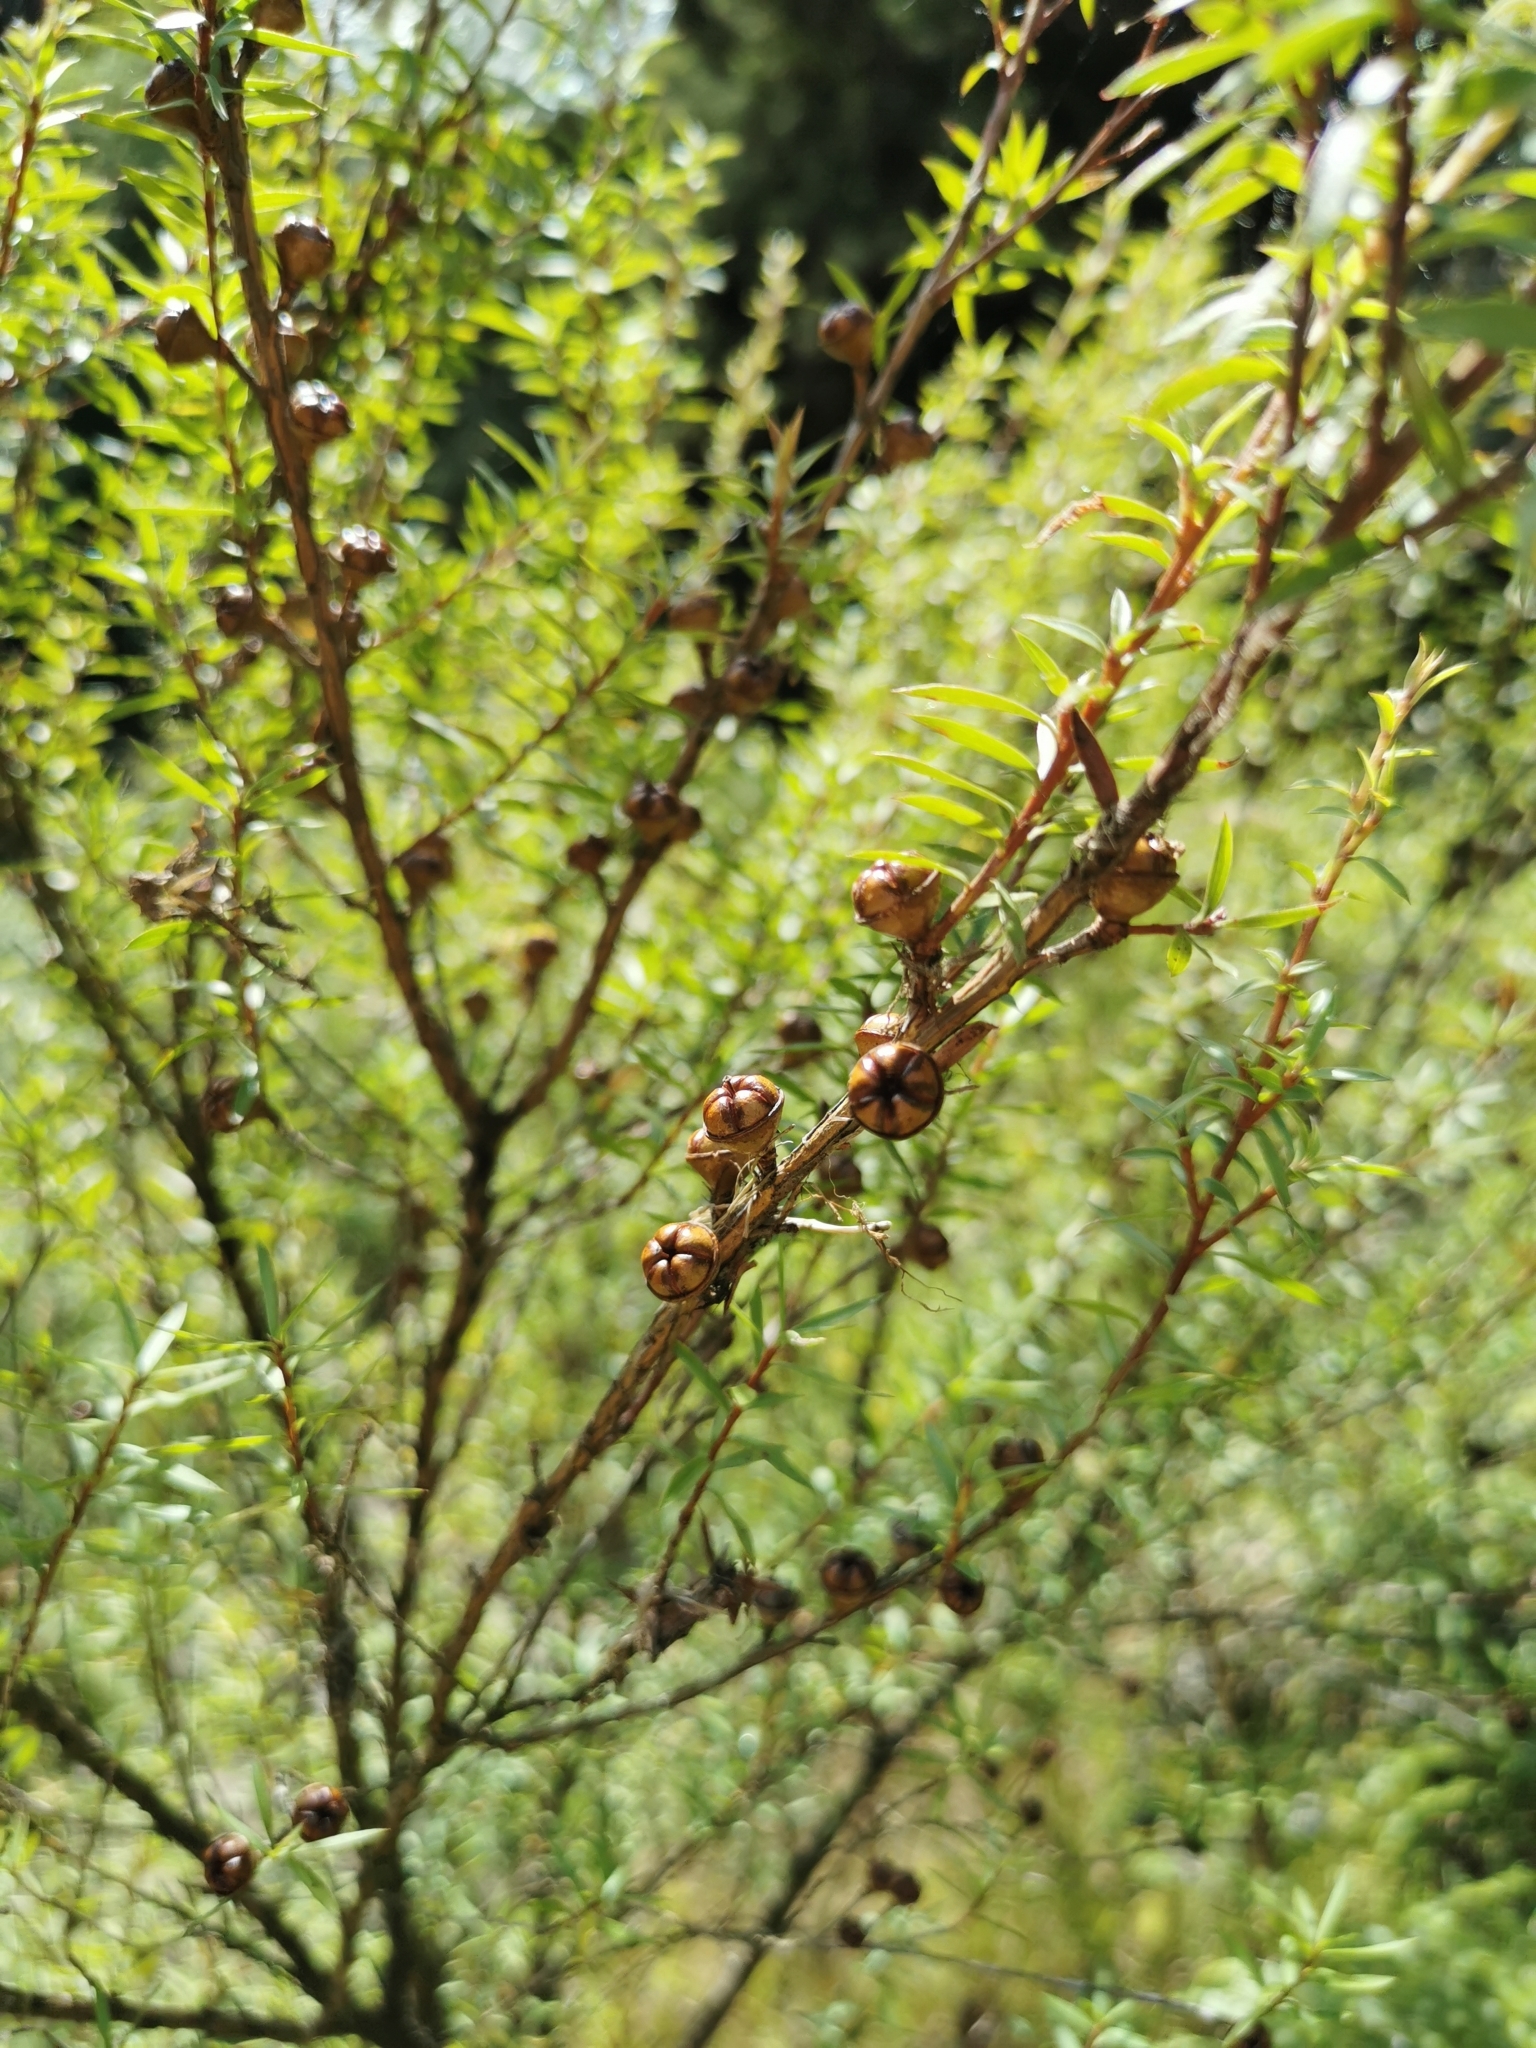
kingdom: Plantae
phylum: Tracheophyta
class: Magnoliopsida
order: Myrtales
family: Myrtaceae
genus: Leptospermum
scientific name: Leptospermum scoparium
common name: Broom tea-tree
